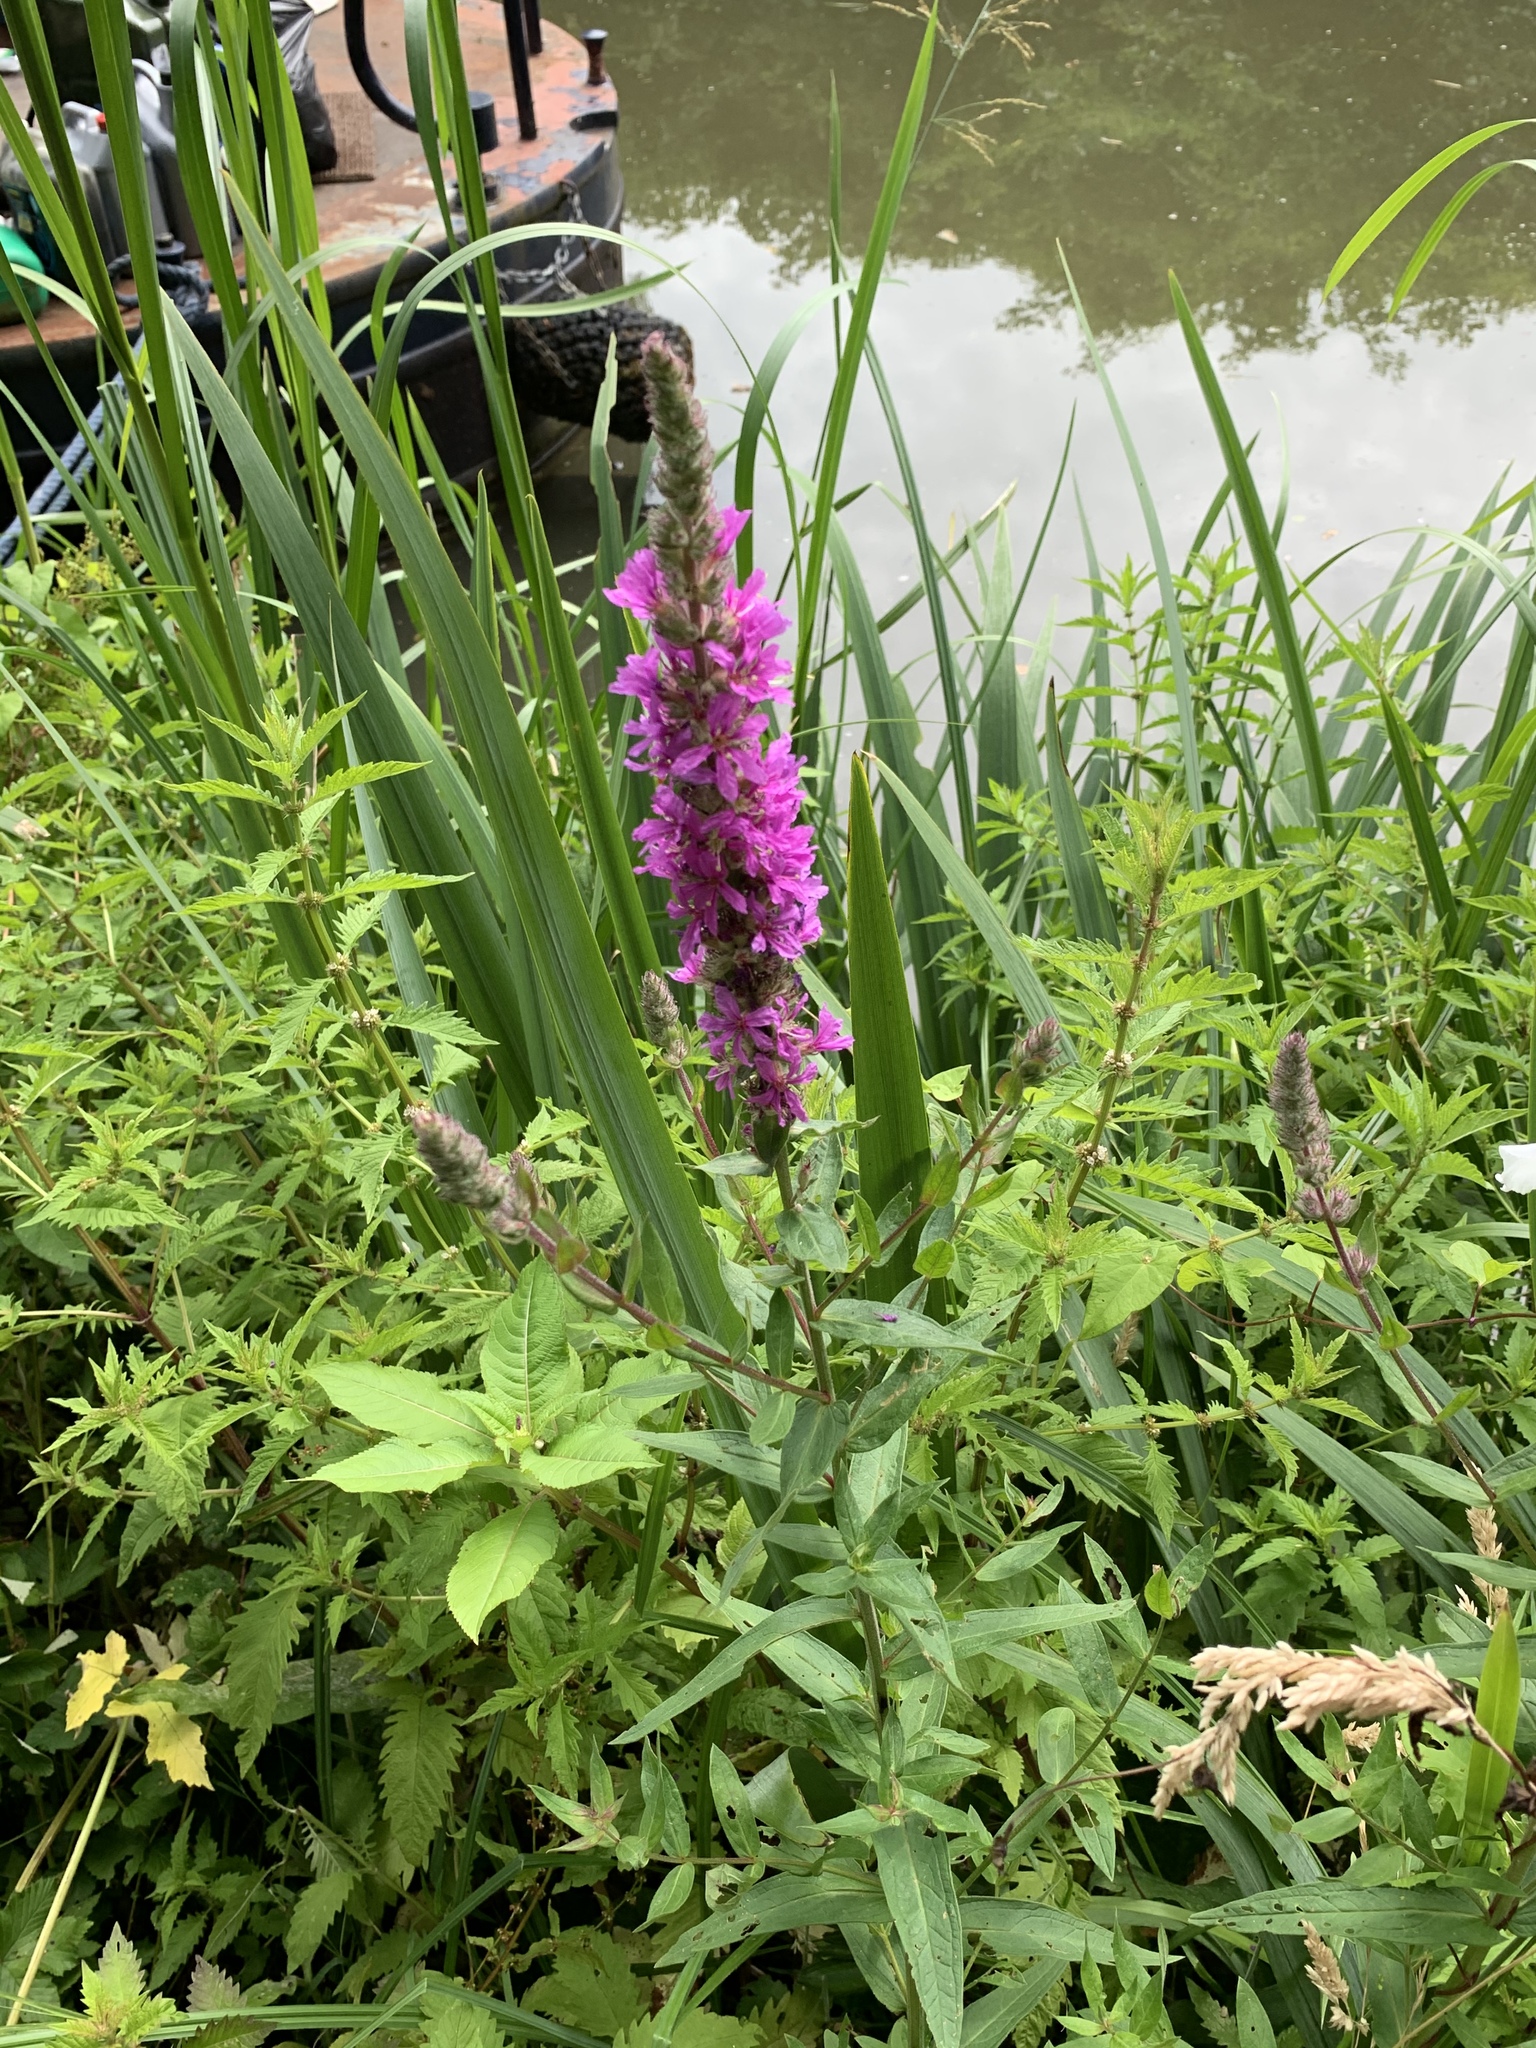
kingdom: Plantae
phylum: Tracheophyta
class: Magnoliopsida
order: Myrtales
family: Lythraceae
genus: Lythrum
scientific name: Lythrum salicaria
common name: Purple loosestrife
